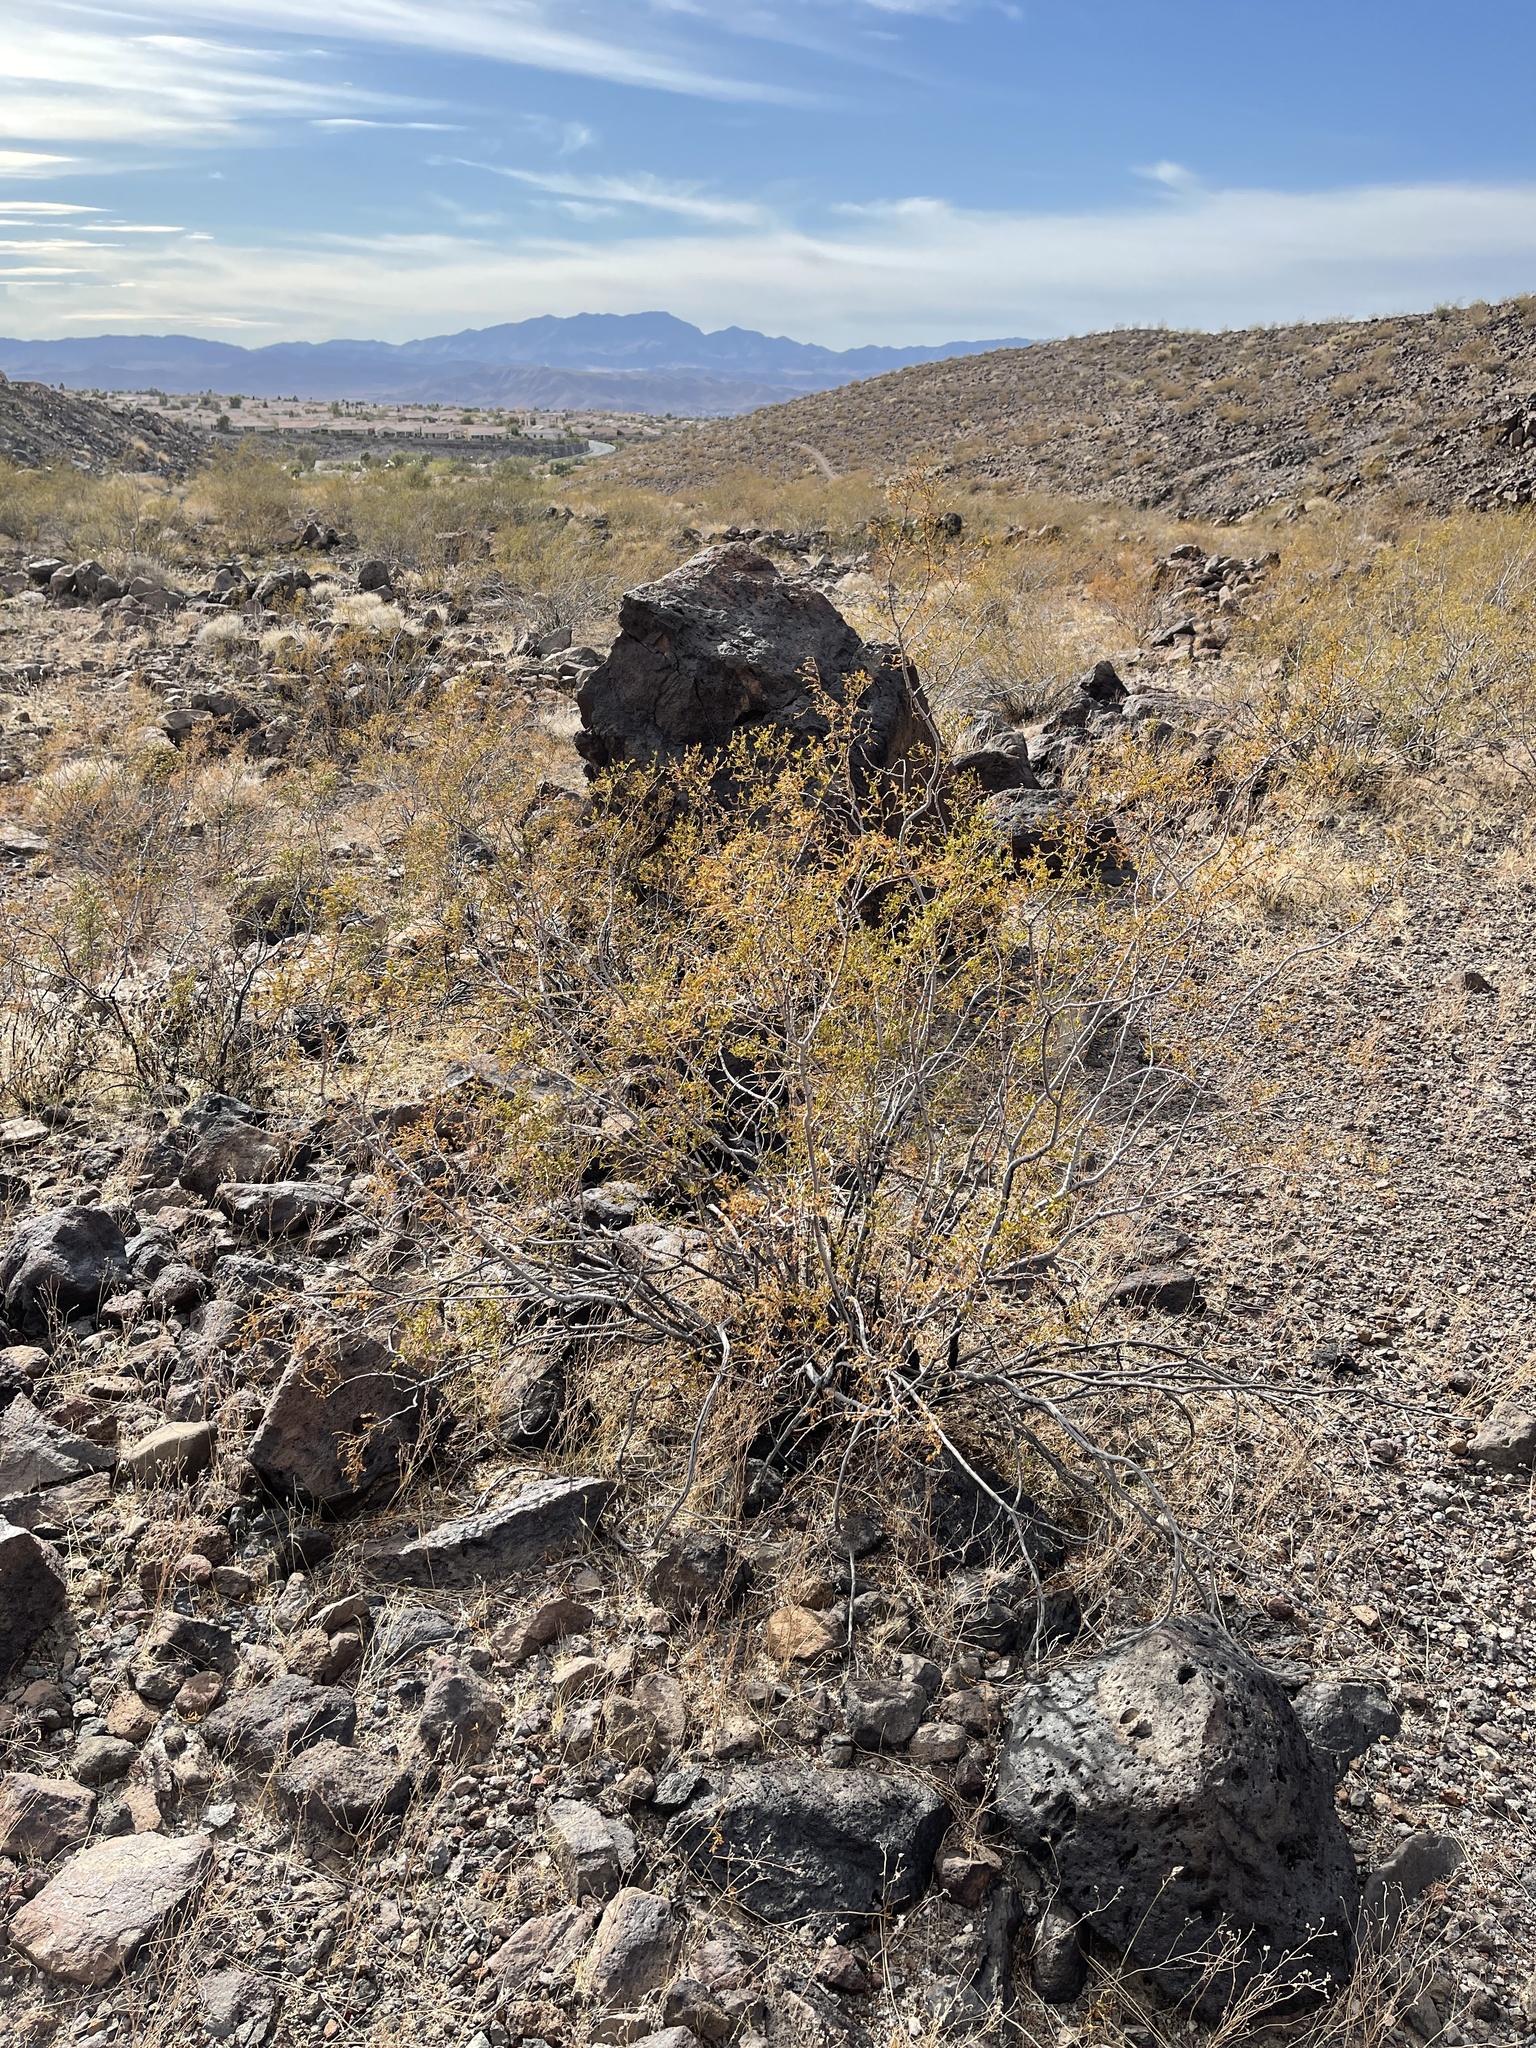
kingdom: Plantae
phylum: Tracheophyta
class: Magnoliopsida
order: Zygophyllales
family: Zygophyllaceae
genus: Larrea
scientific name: Larrea tridentata
